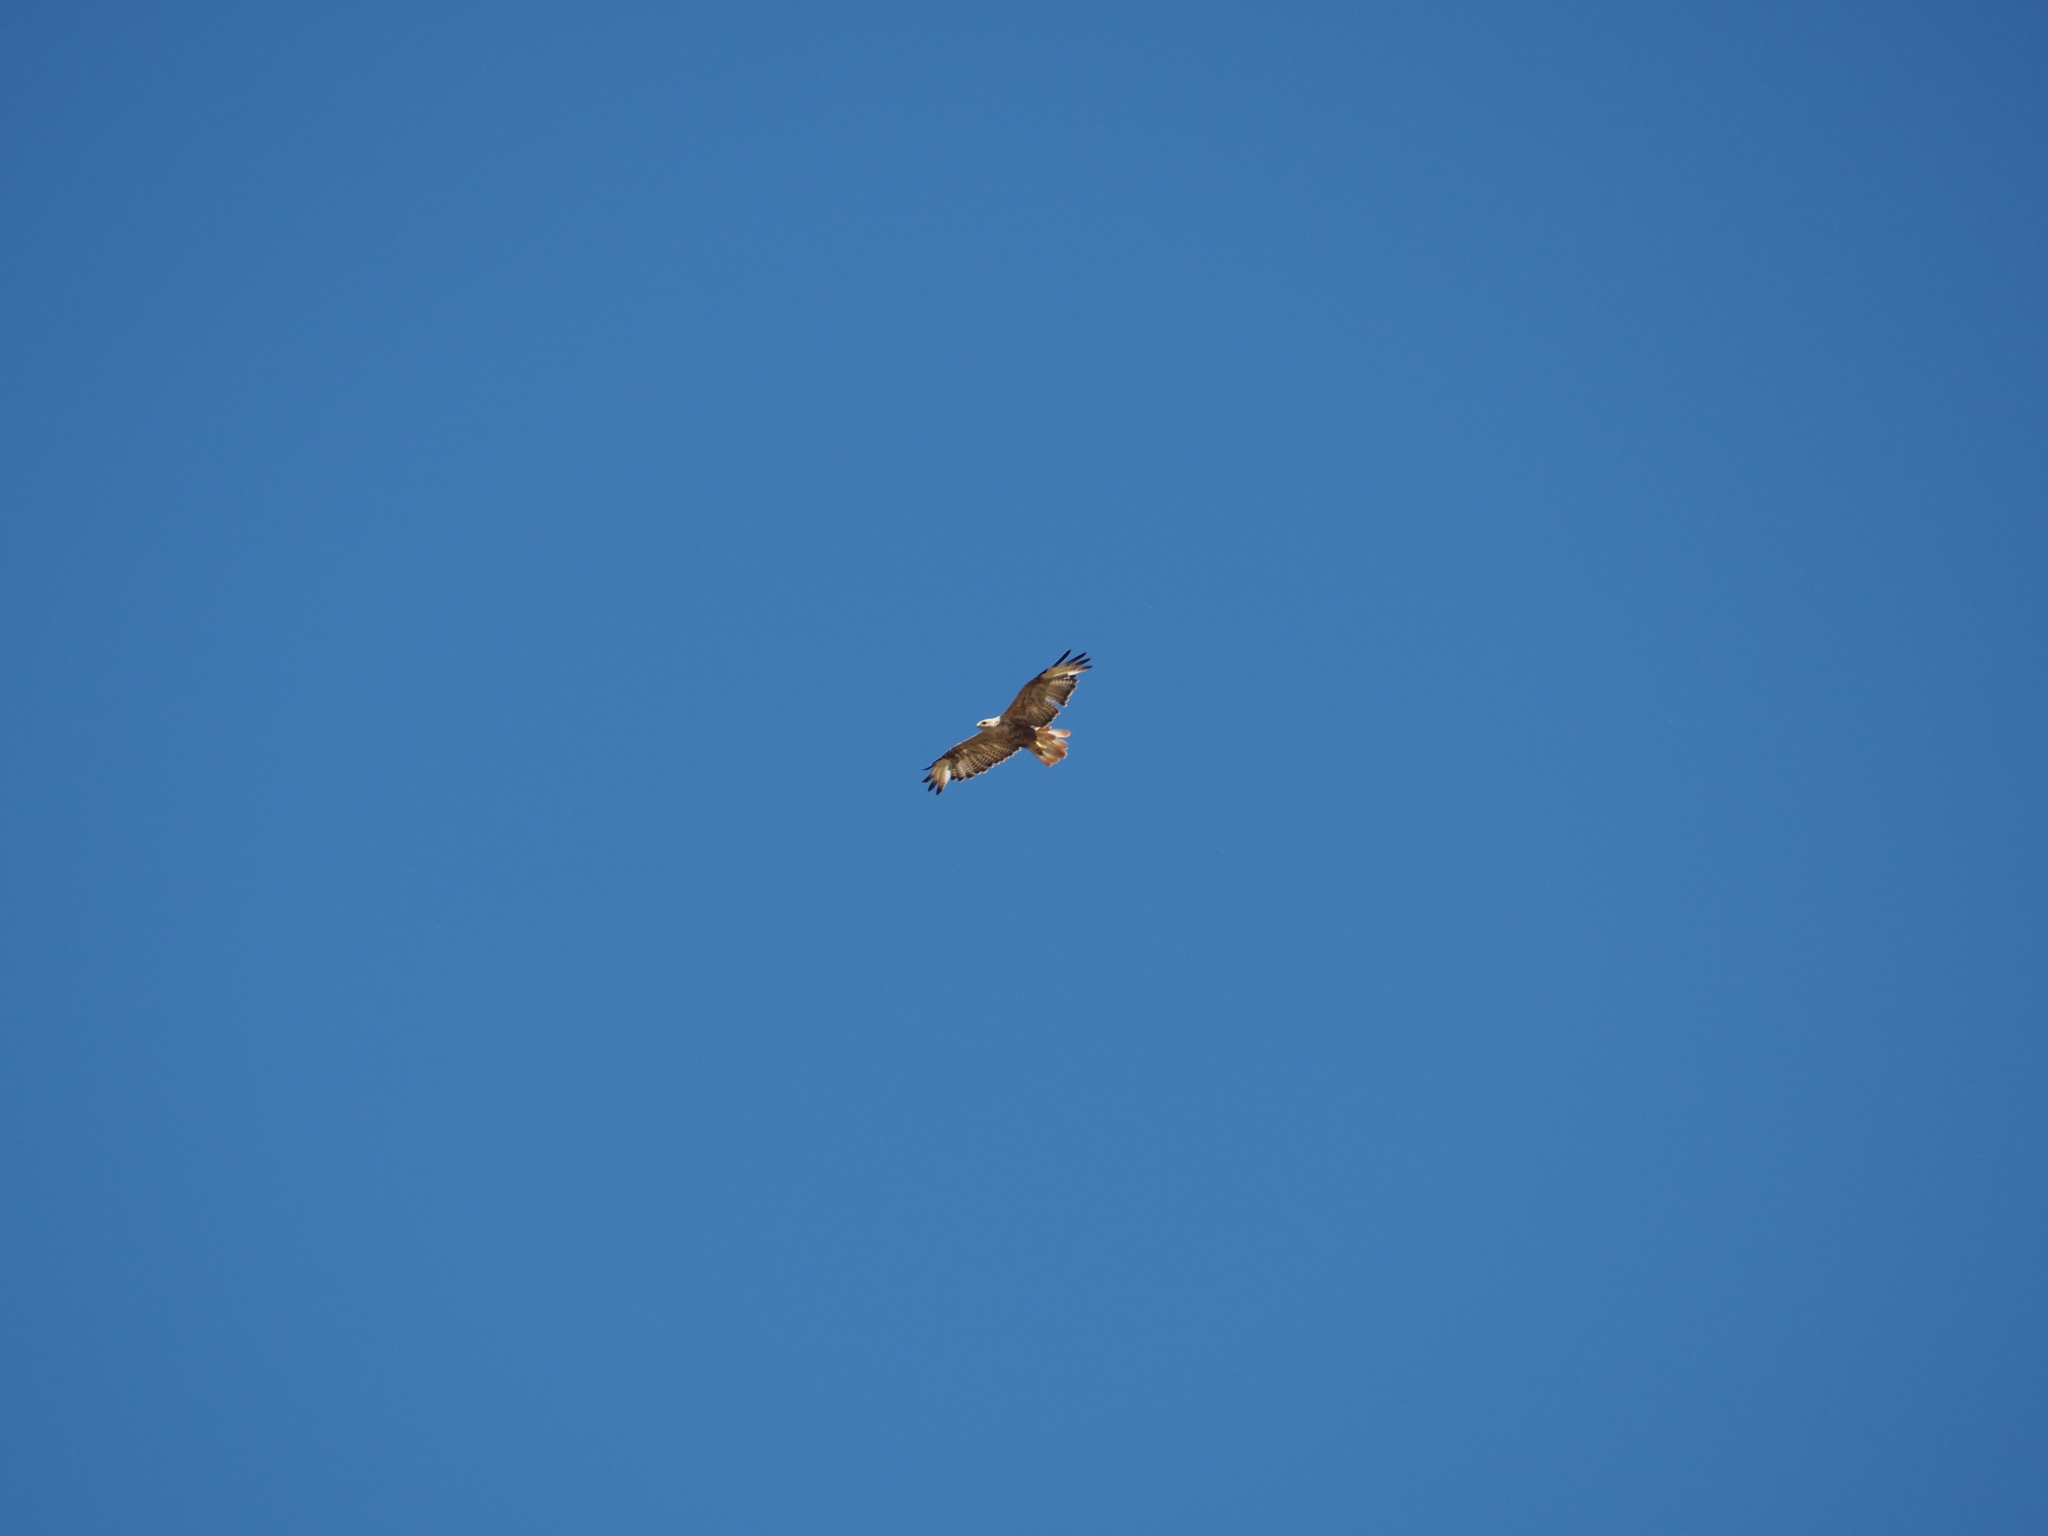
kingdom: Animalia
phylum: Chordata
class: Aves
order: Accipitriformes
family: Accipitridae
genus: Buteo
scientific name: Buteo rufinus
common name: Long-legged buzzard
